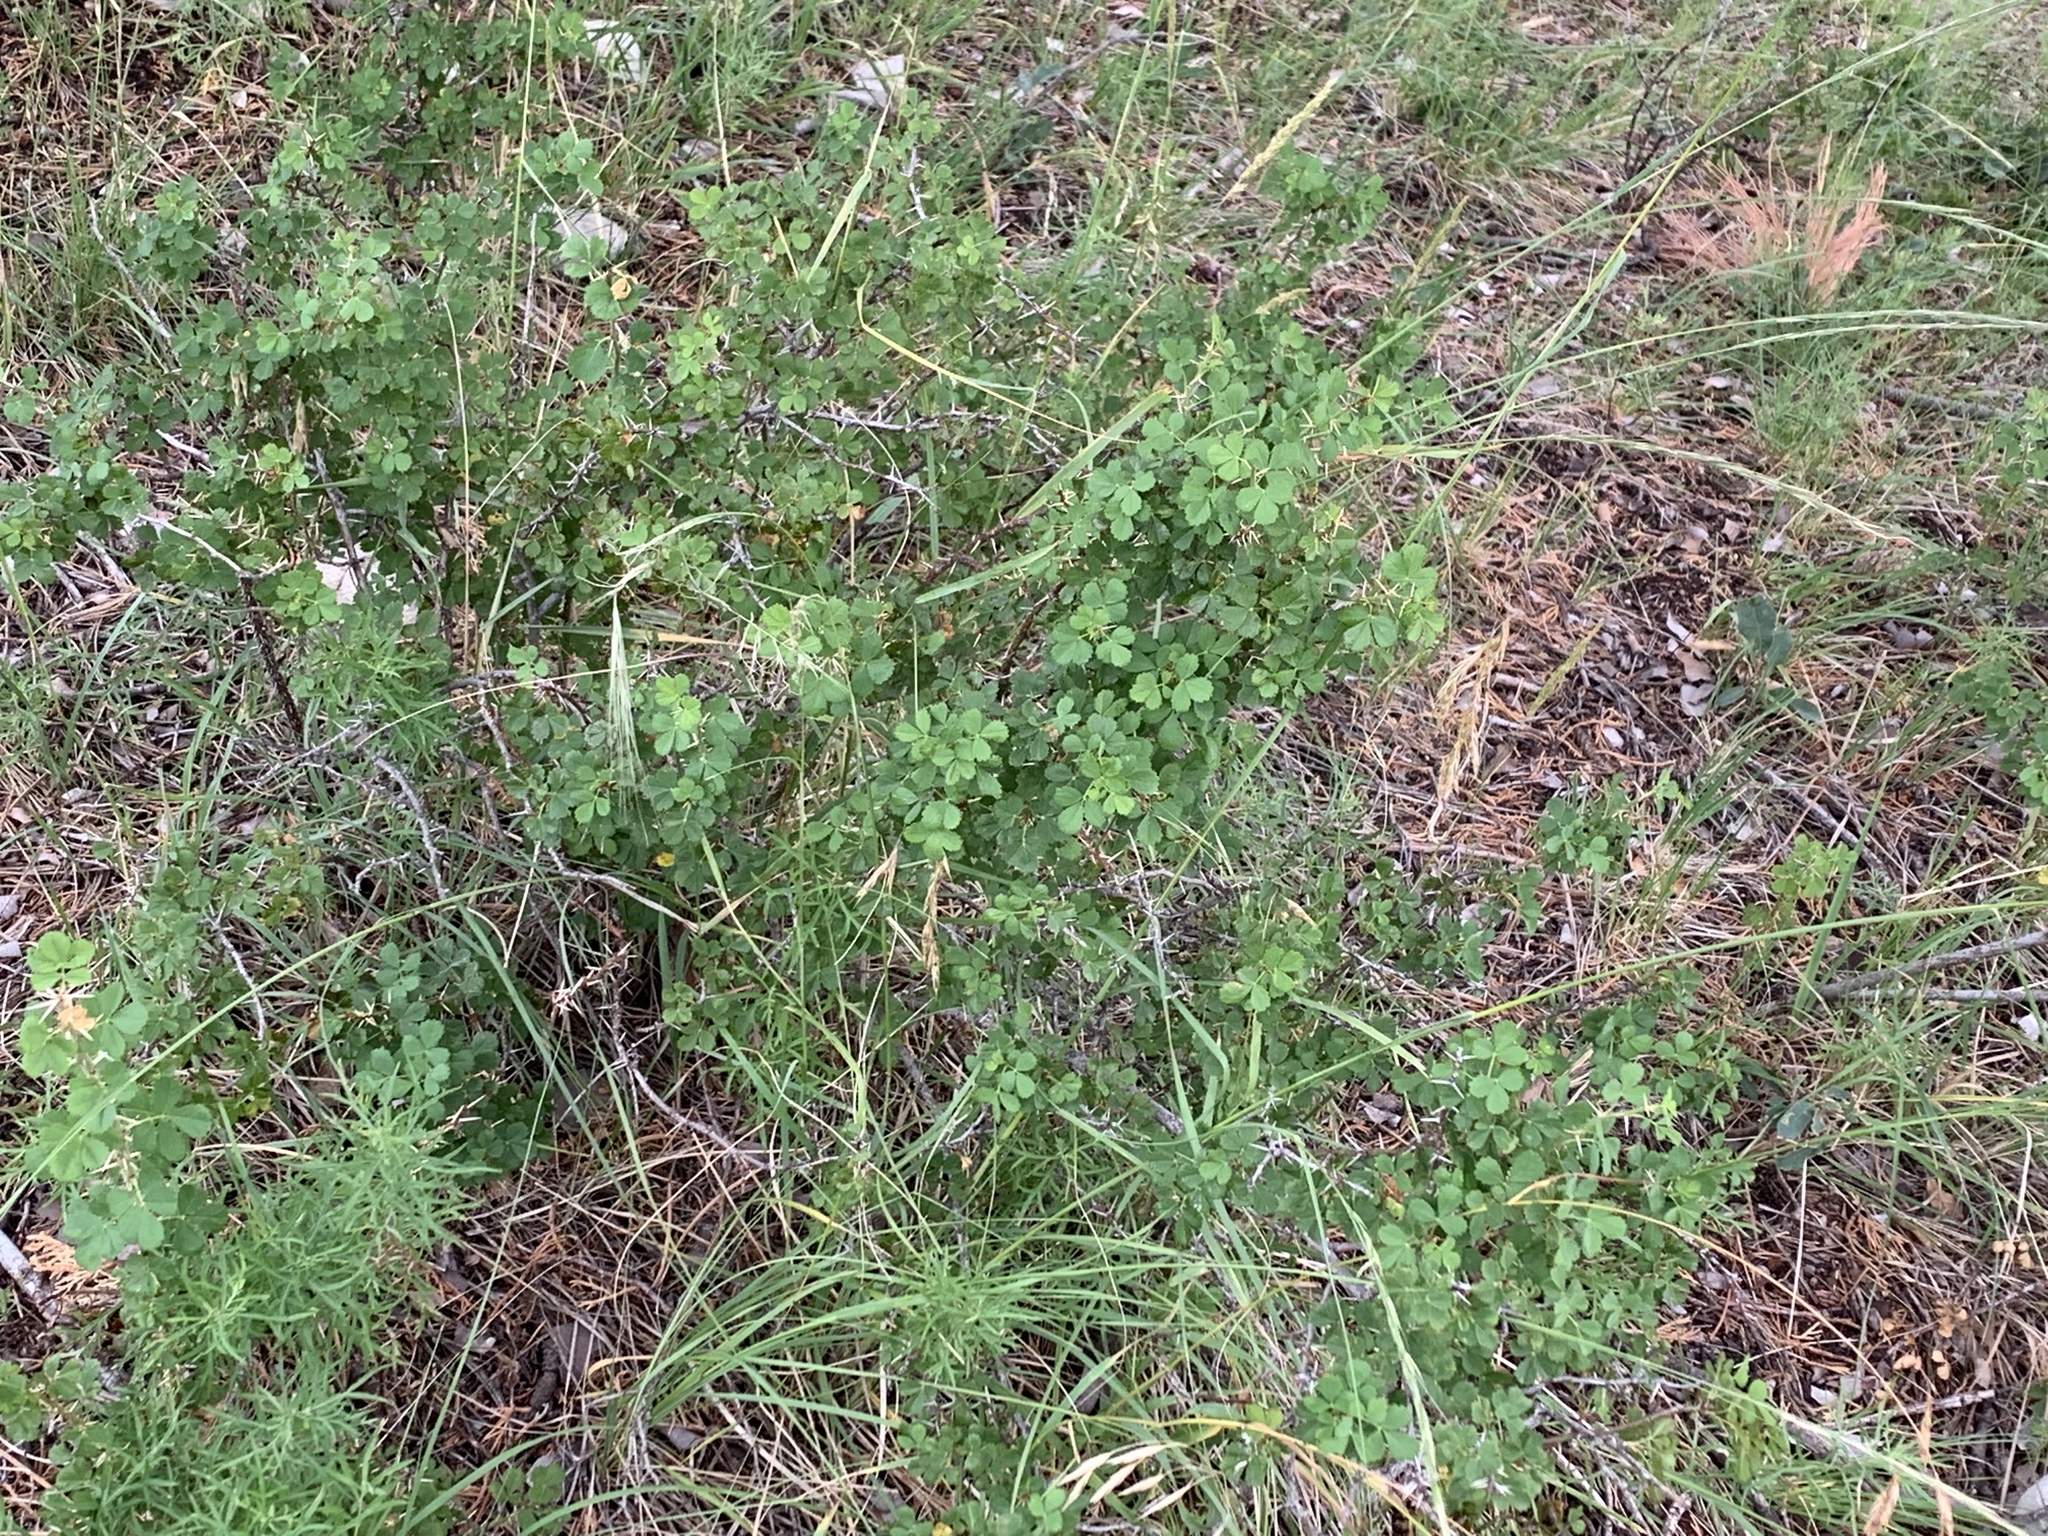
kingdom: Plantae
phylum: Tracheophyta
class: Magnoliopsida
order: Rosales
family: Rosaceae
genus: Rosa
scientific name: Rosa stellata
